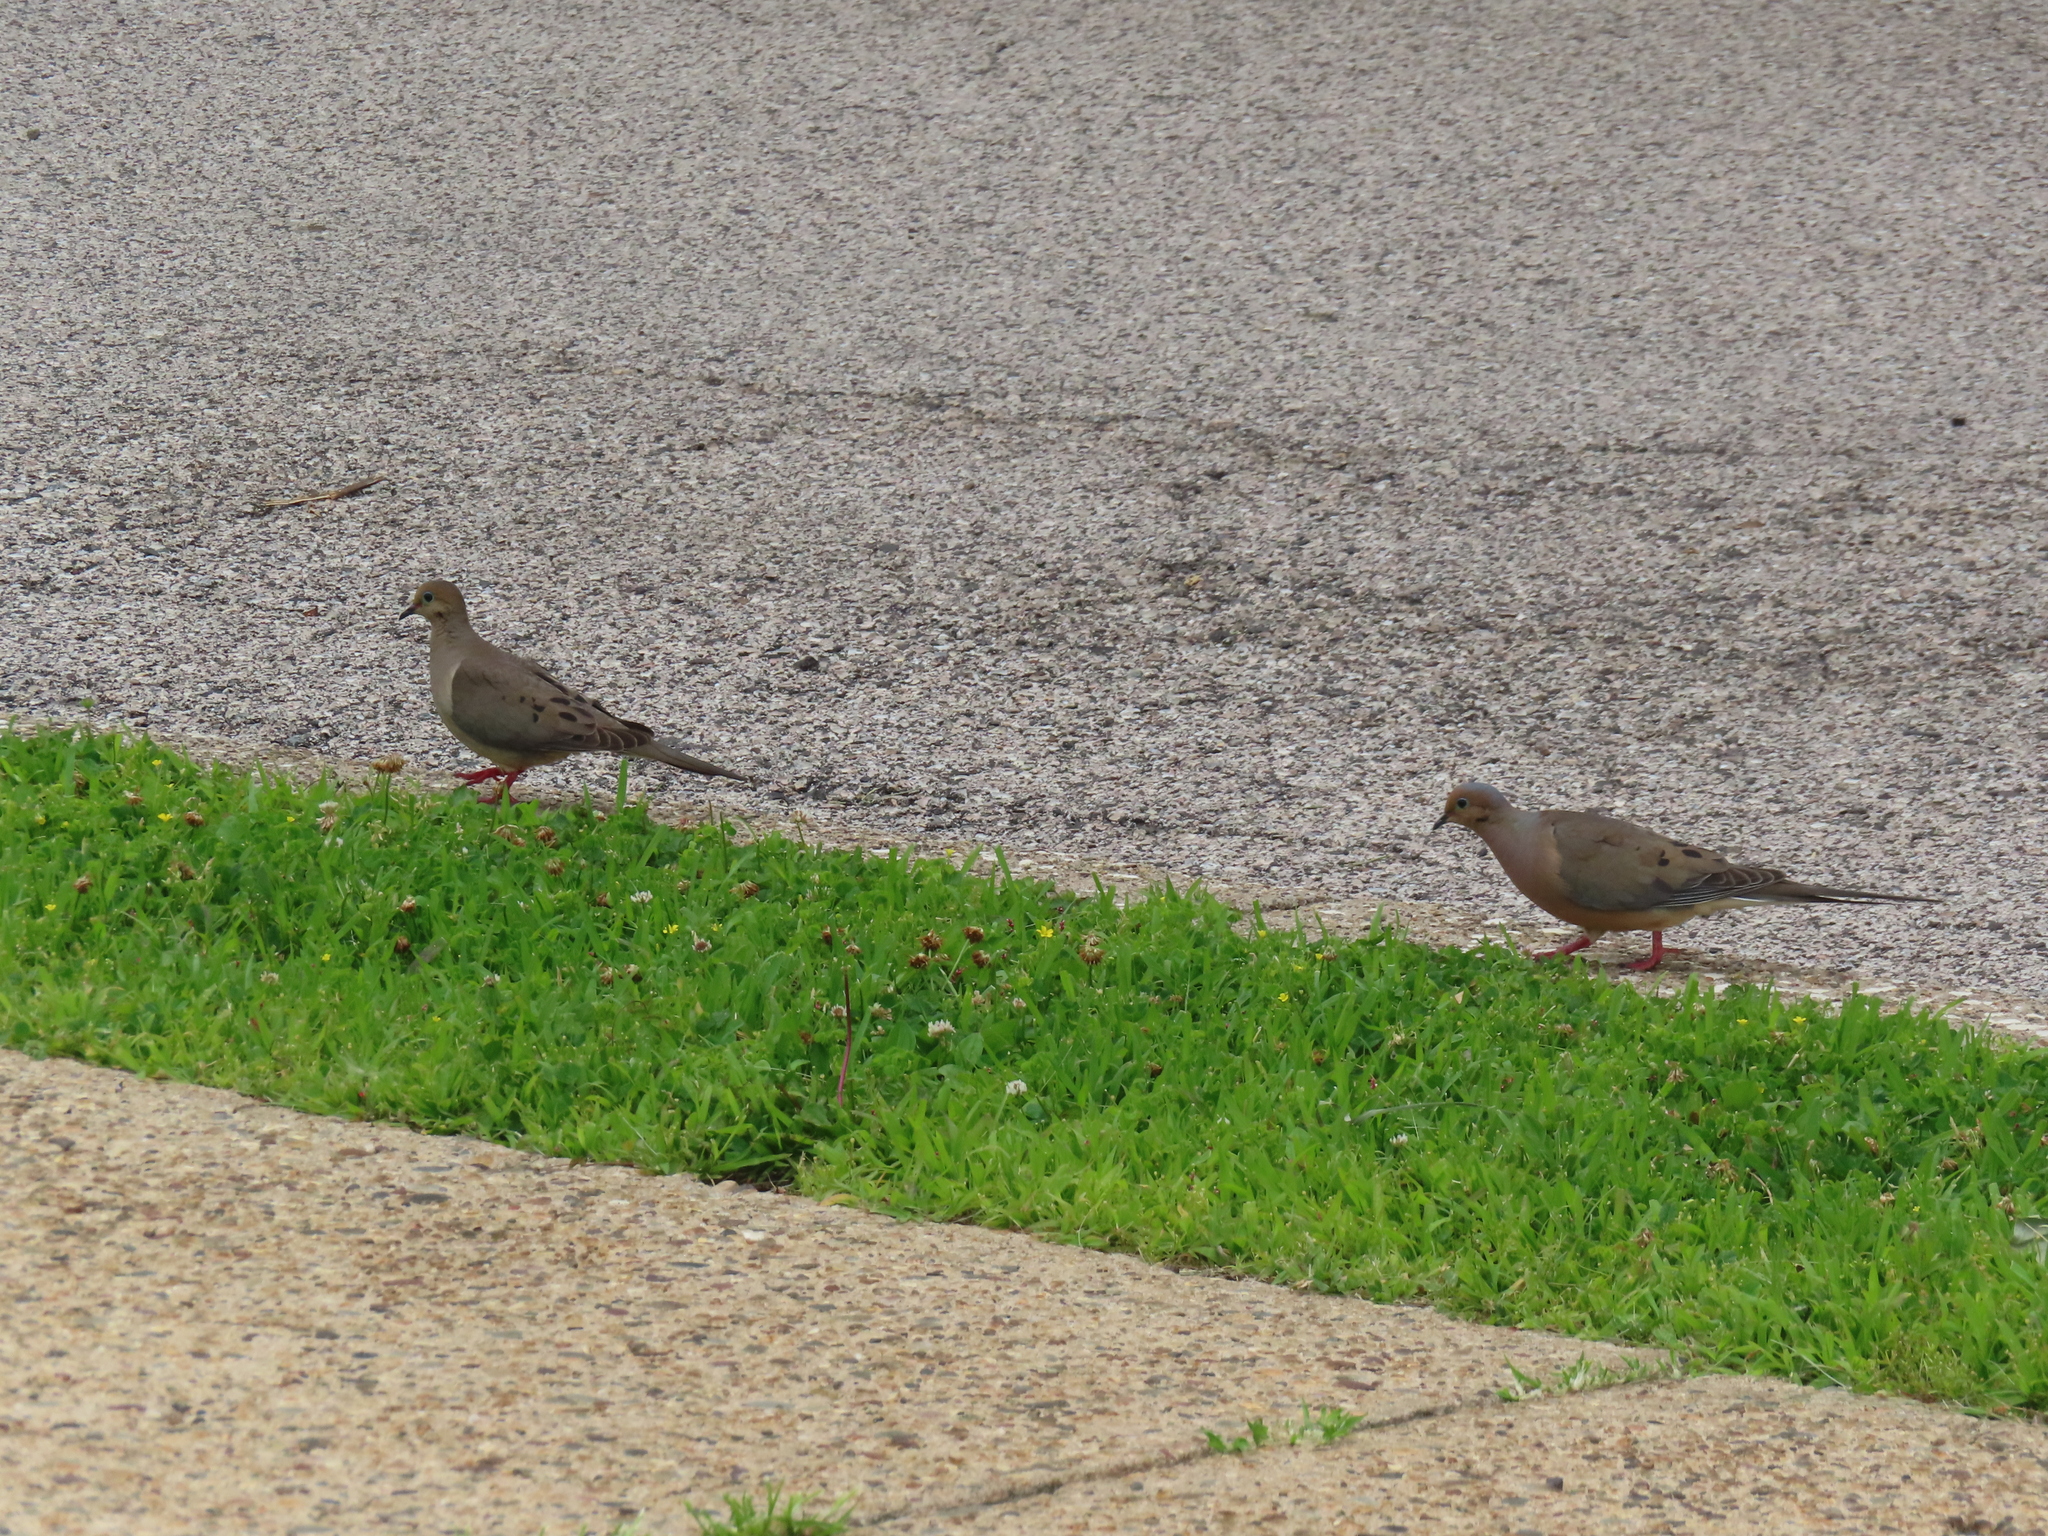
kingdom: Animalia
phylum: Chordata
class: Aves
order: Columbiformes
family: Columbidae
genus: Zenaida
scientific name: Zenaida macroura
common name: Mourning dove
